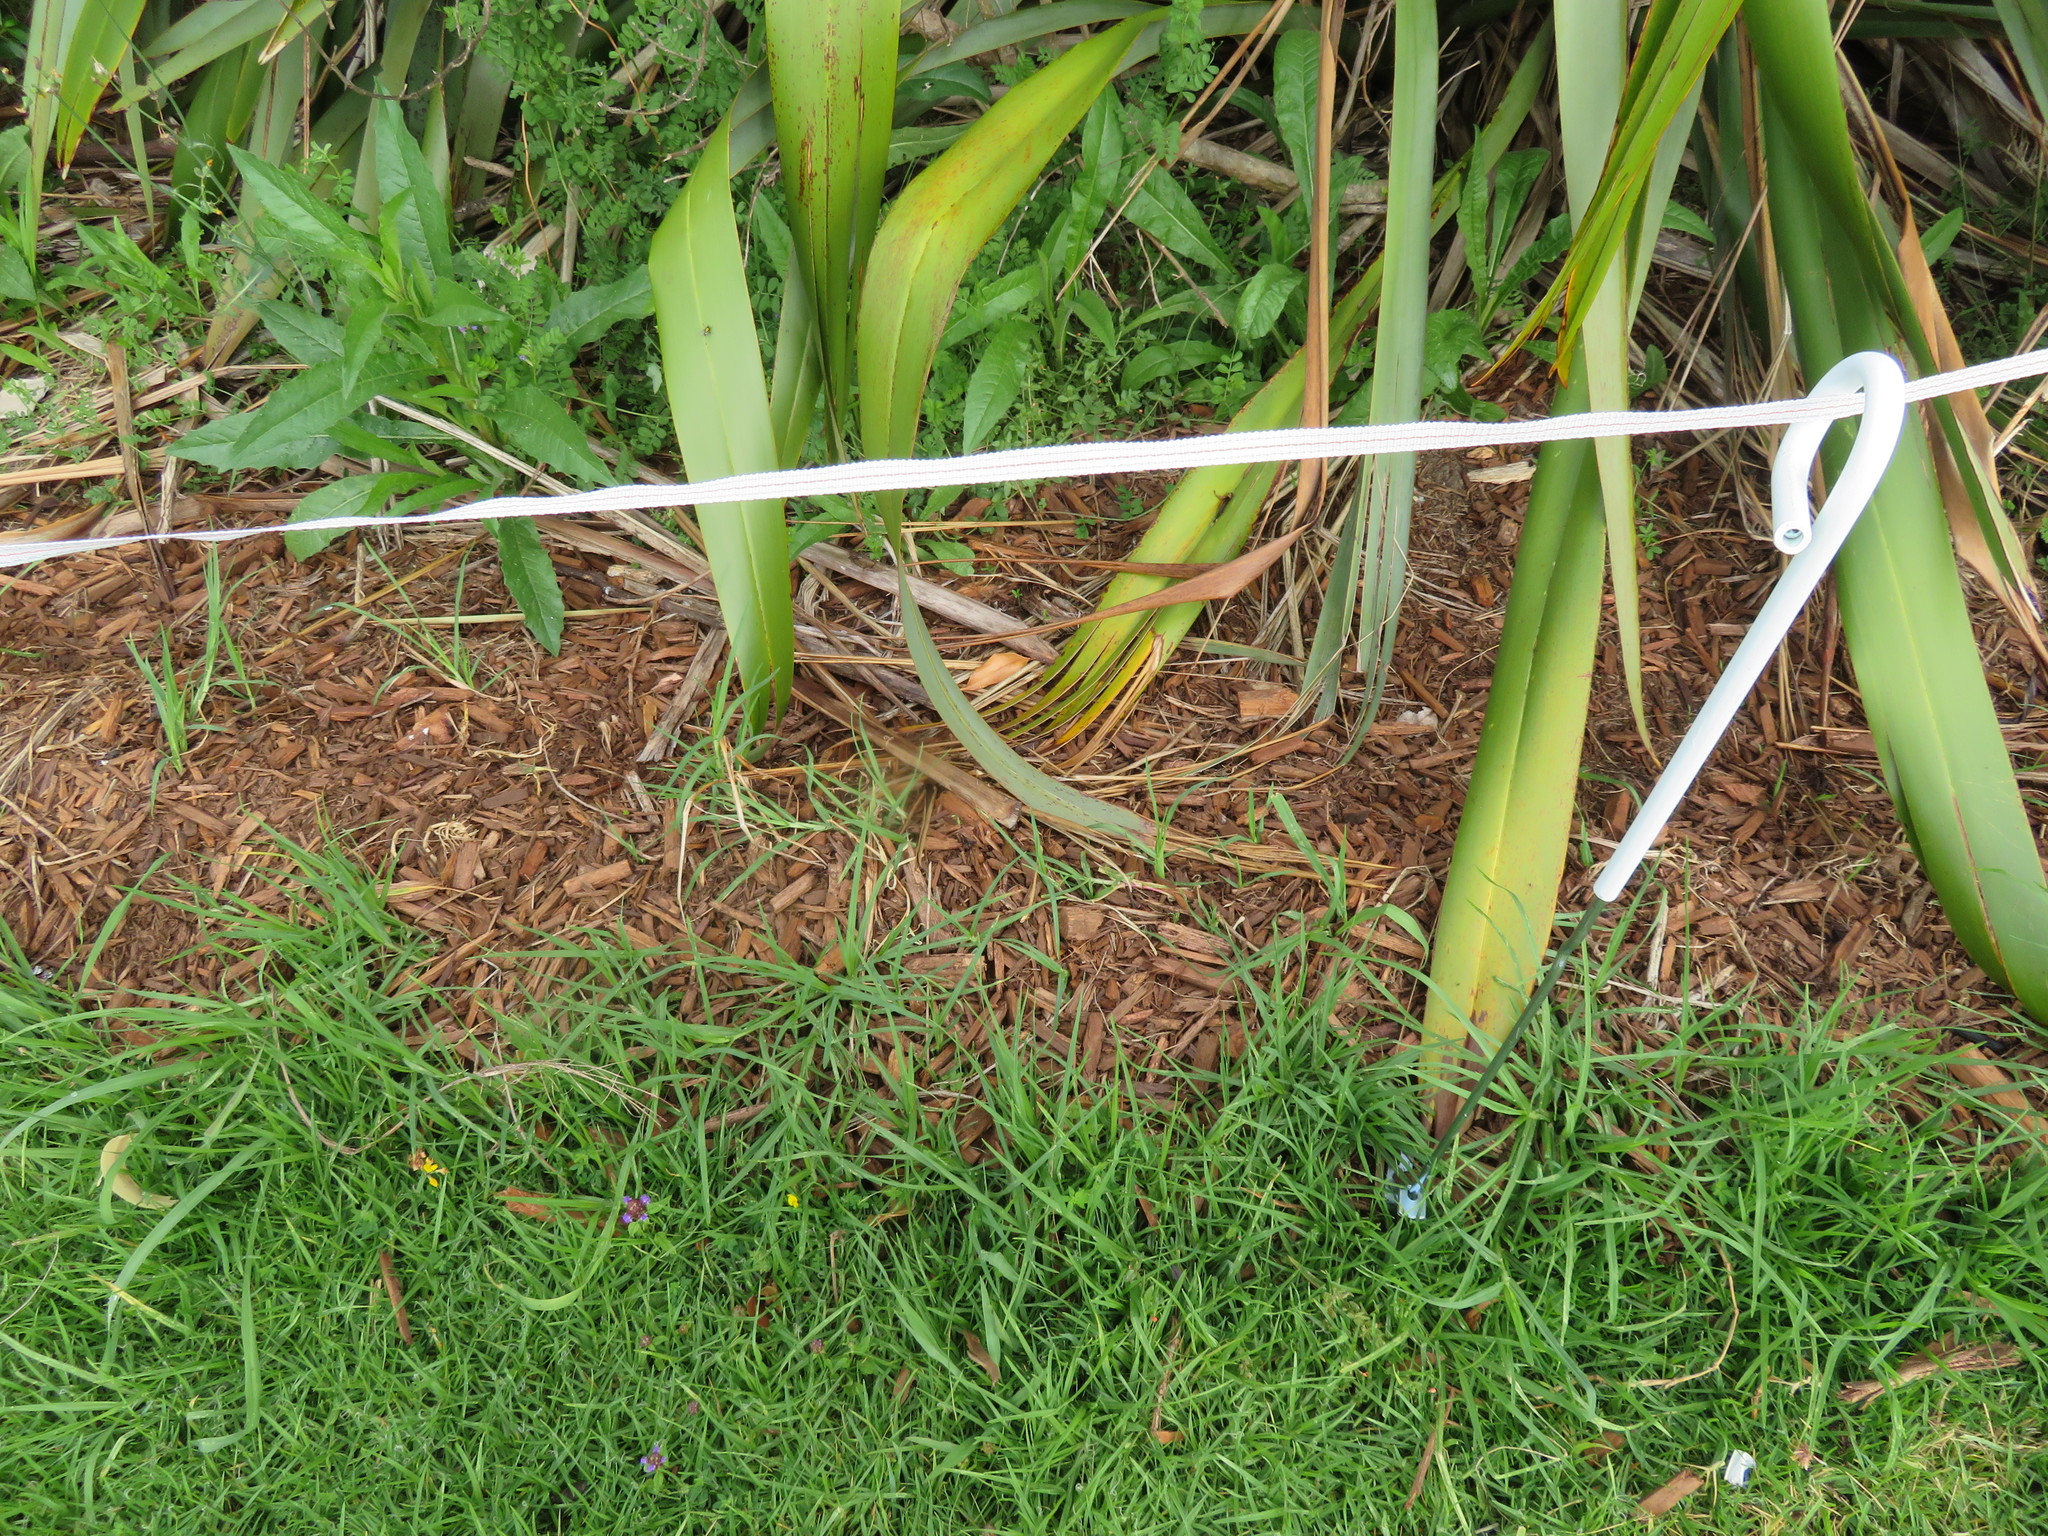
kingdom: Plantae
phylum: Tracheophyta
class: Magnoliopsida
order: Fabales
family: Fabaceae
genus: Vicia
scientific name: Vicia sativa
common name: Garden vetch
